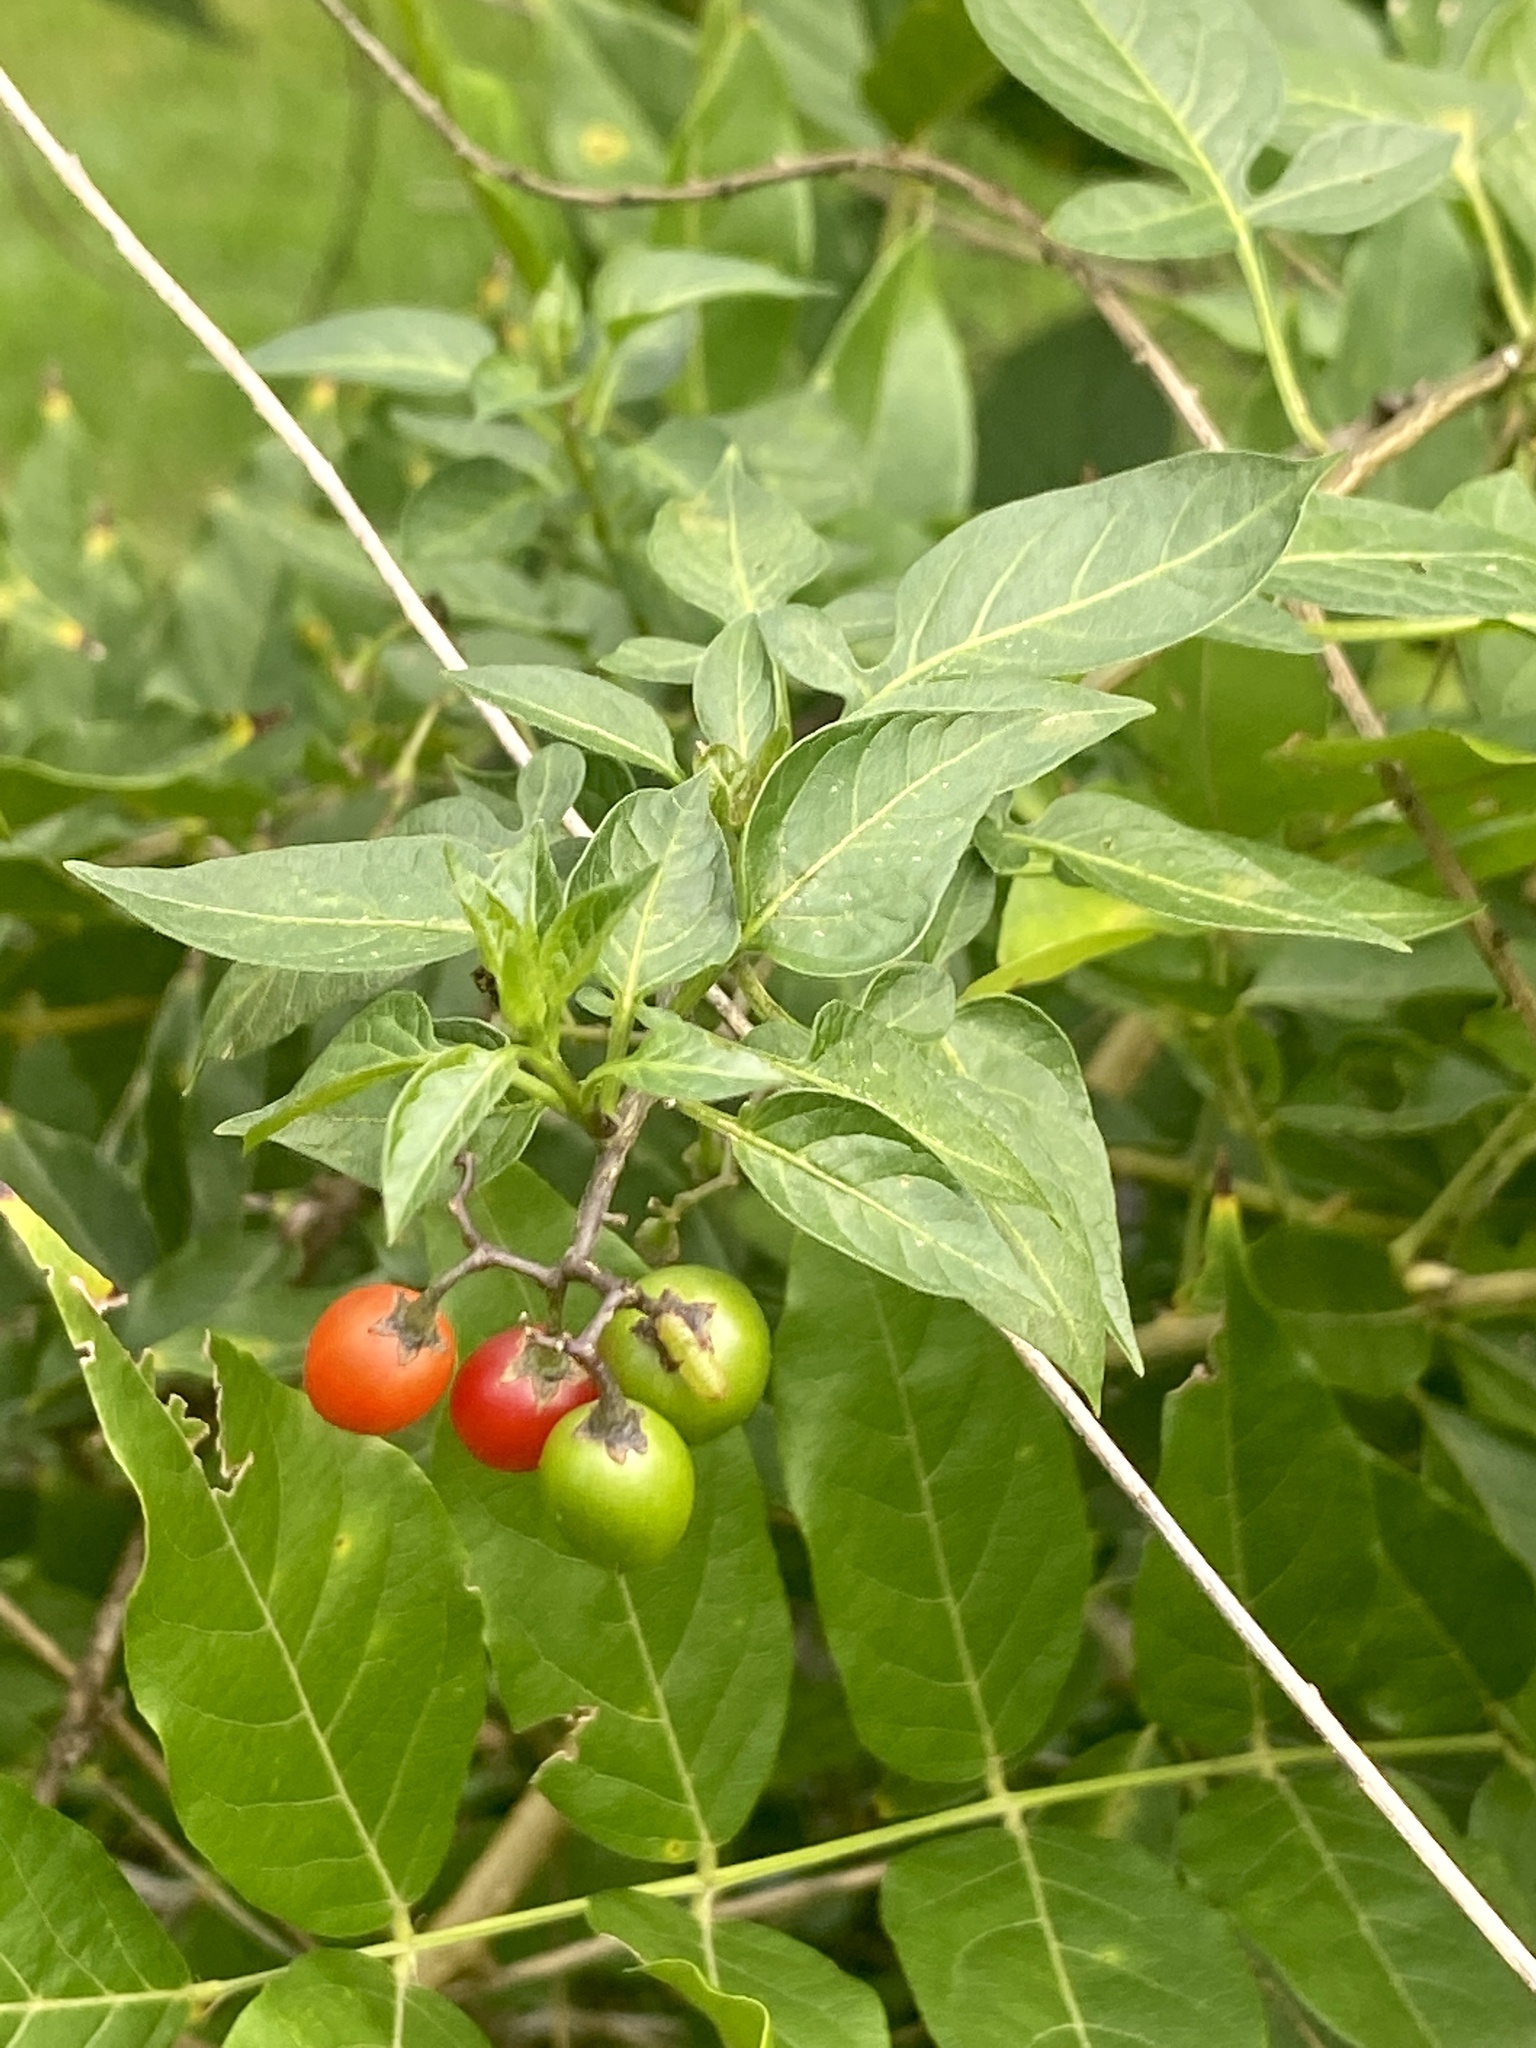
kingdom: Plantae
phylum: Tracheophyta
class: Magnoliopsida
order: Solanales
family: Solanaceae
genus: Solanum
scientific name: Solanum dulcamara
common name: Climbing nightshade
